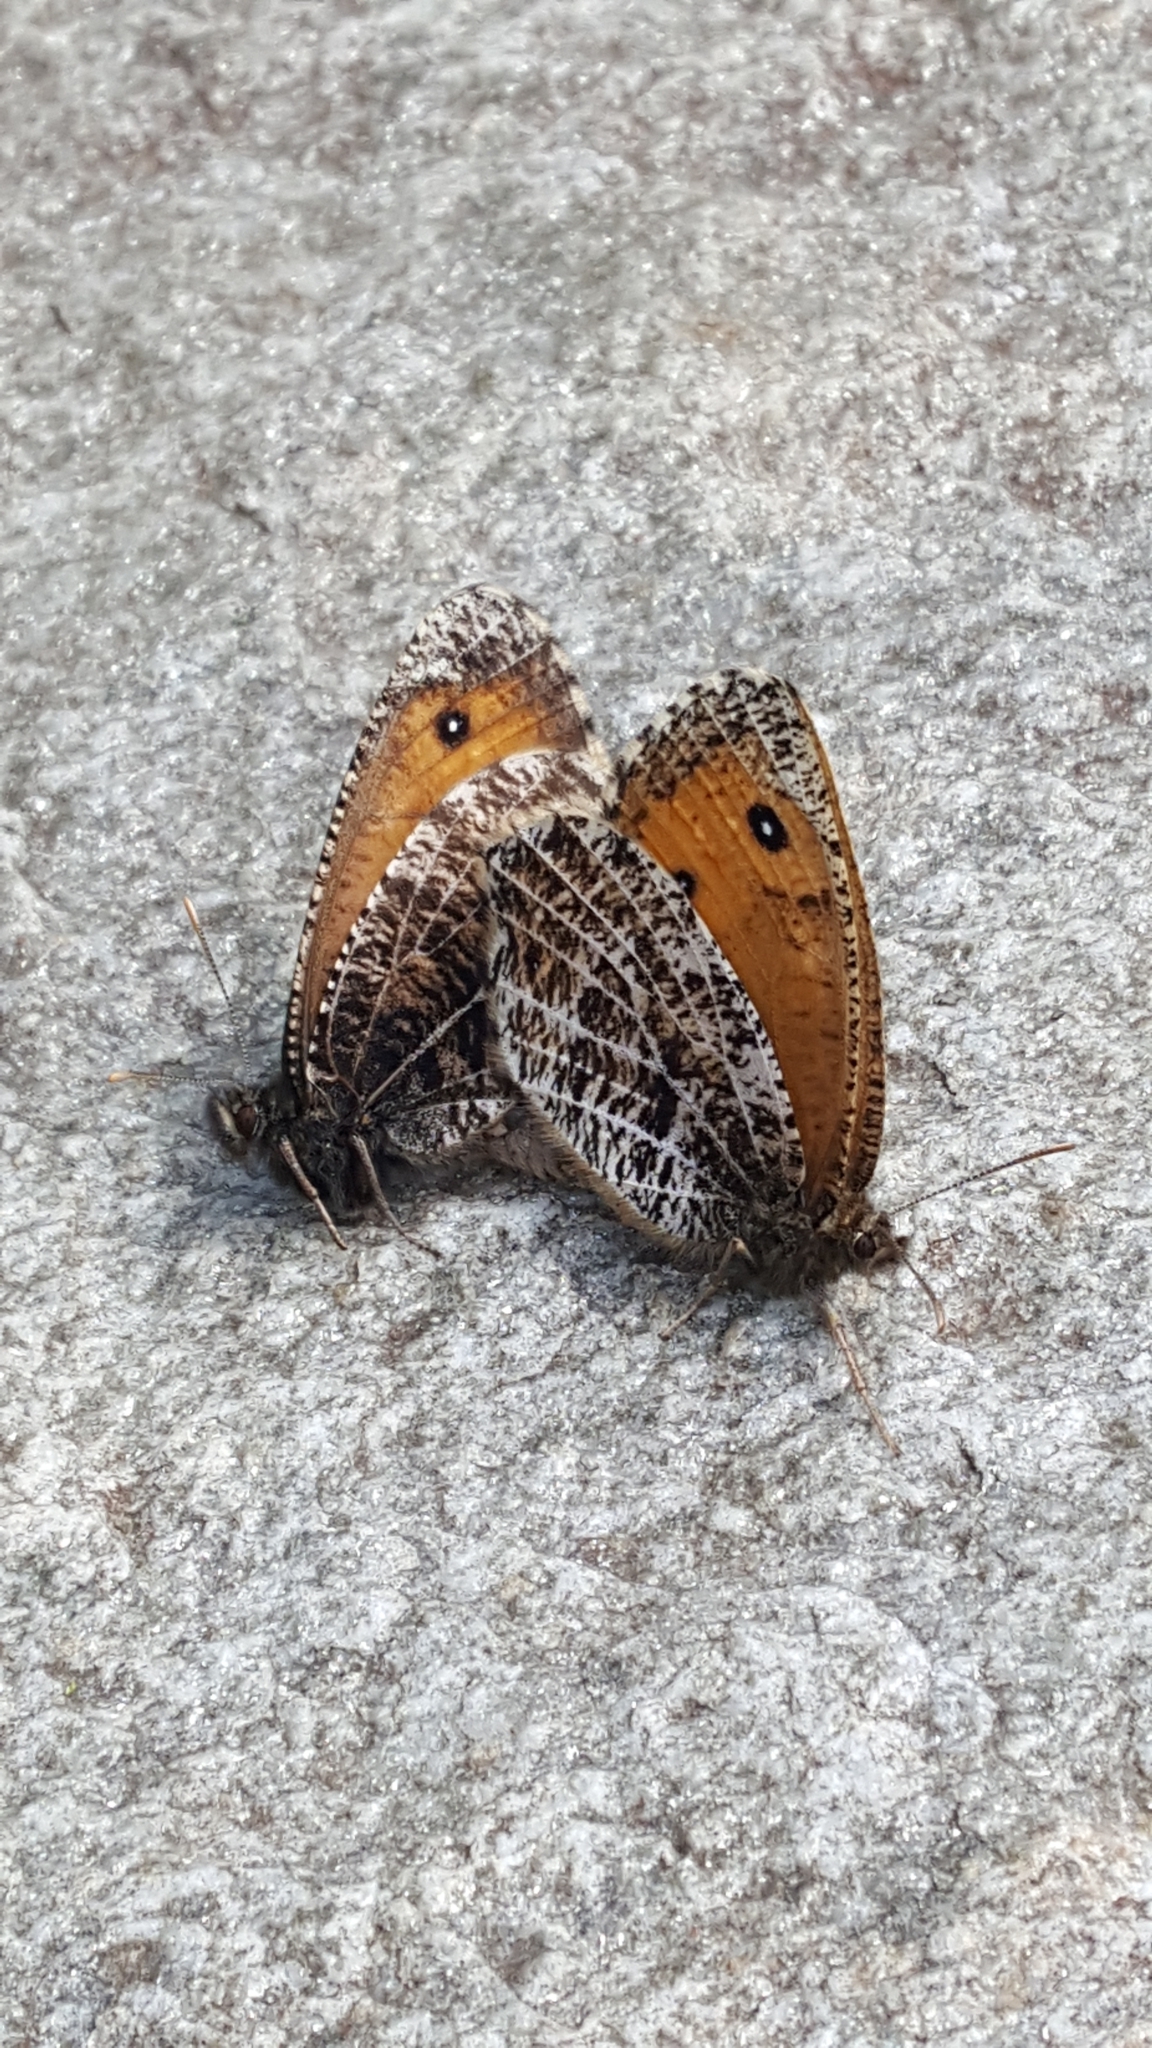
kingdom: Animalia
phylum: Arthropoda
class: Insecta
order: Lepidoptera
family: Nymphalidae
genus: Oeneis
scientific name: Oeneis aello
